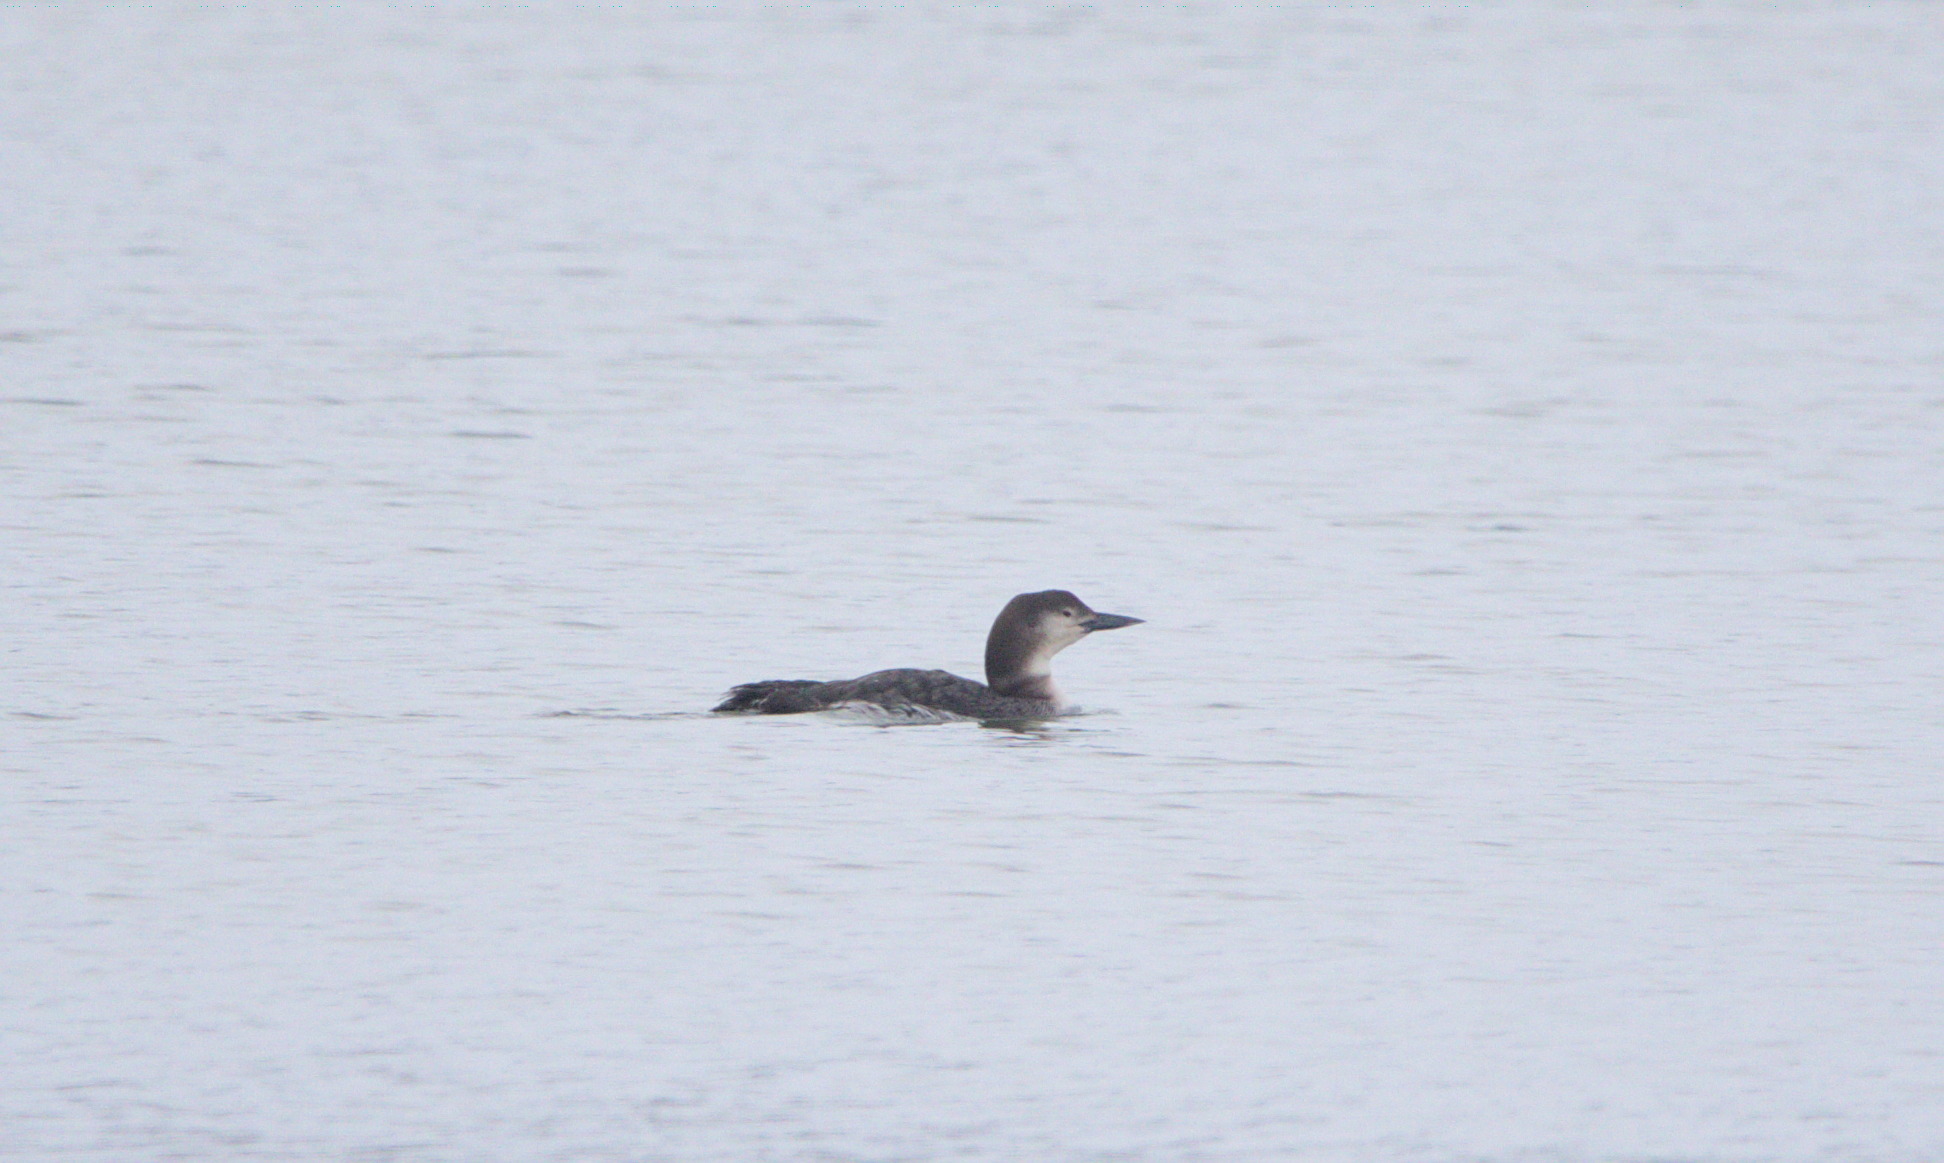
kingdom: Animalia
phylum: Chordata
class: Aves
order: Gaviiformes
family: Gaviidae
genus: Gavia
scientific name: Gavia immer
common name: Common loon
